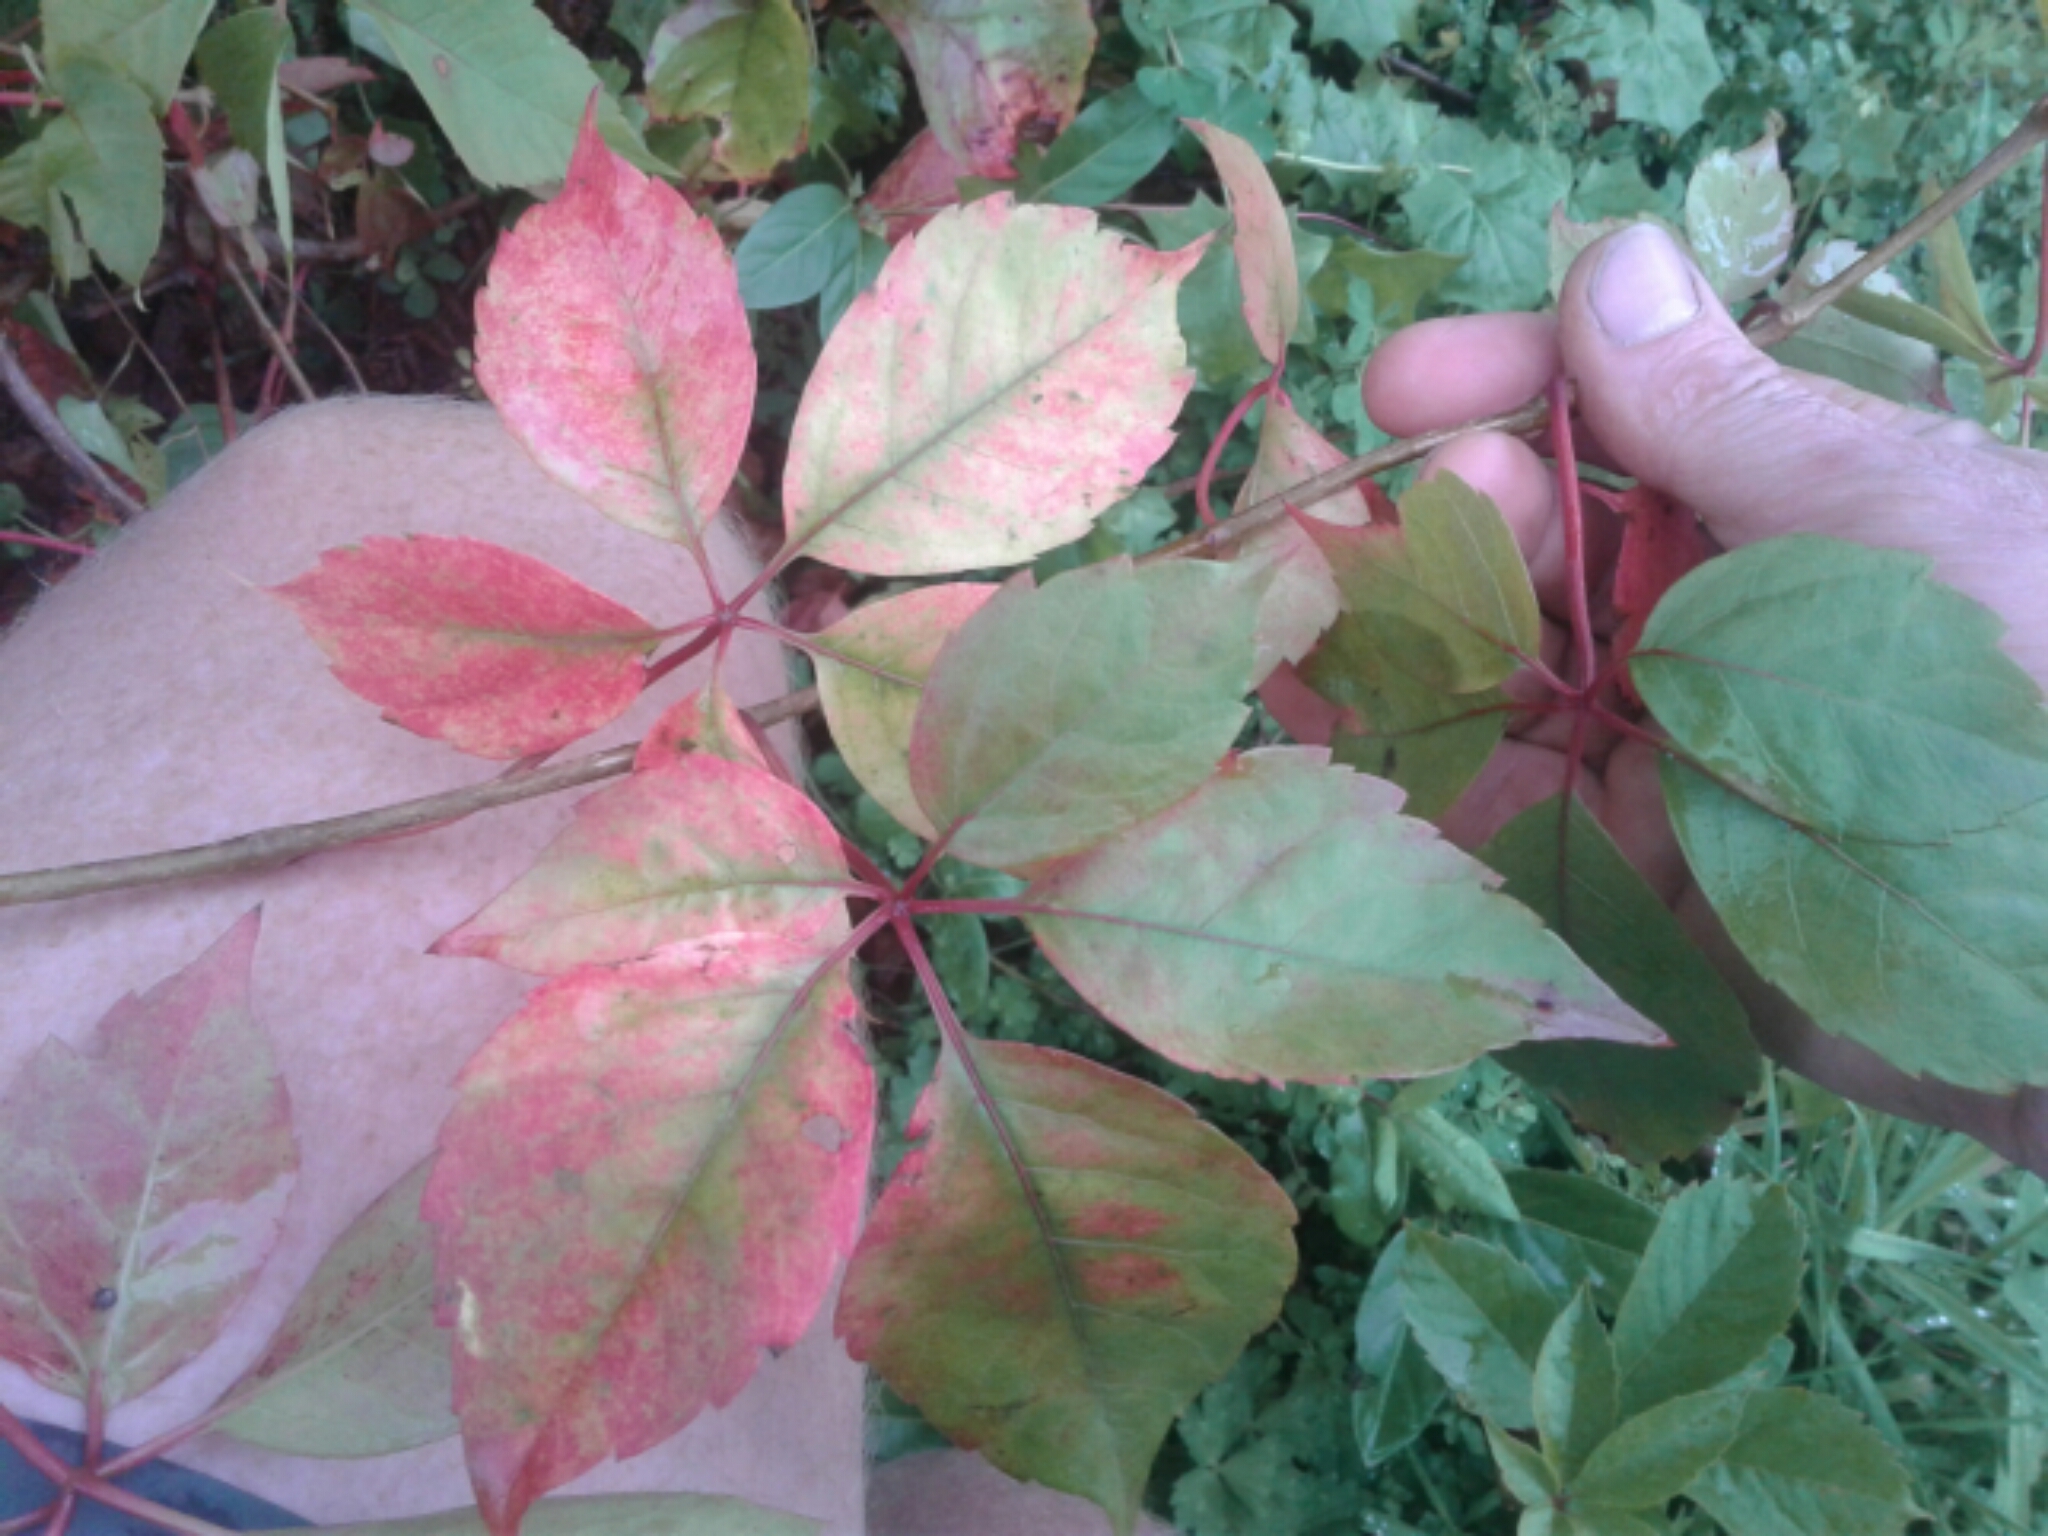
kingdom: Plantae
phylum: Tracheophyta
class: Magnoliopsida
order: Vitales
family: Vitaceae
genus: Parthenocissus
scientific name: Parthenocissus quinquefolia
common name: Virginia-creeper
